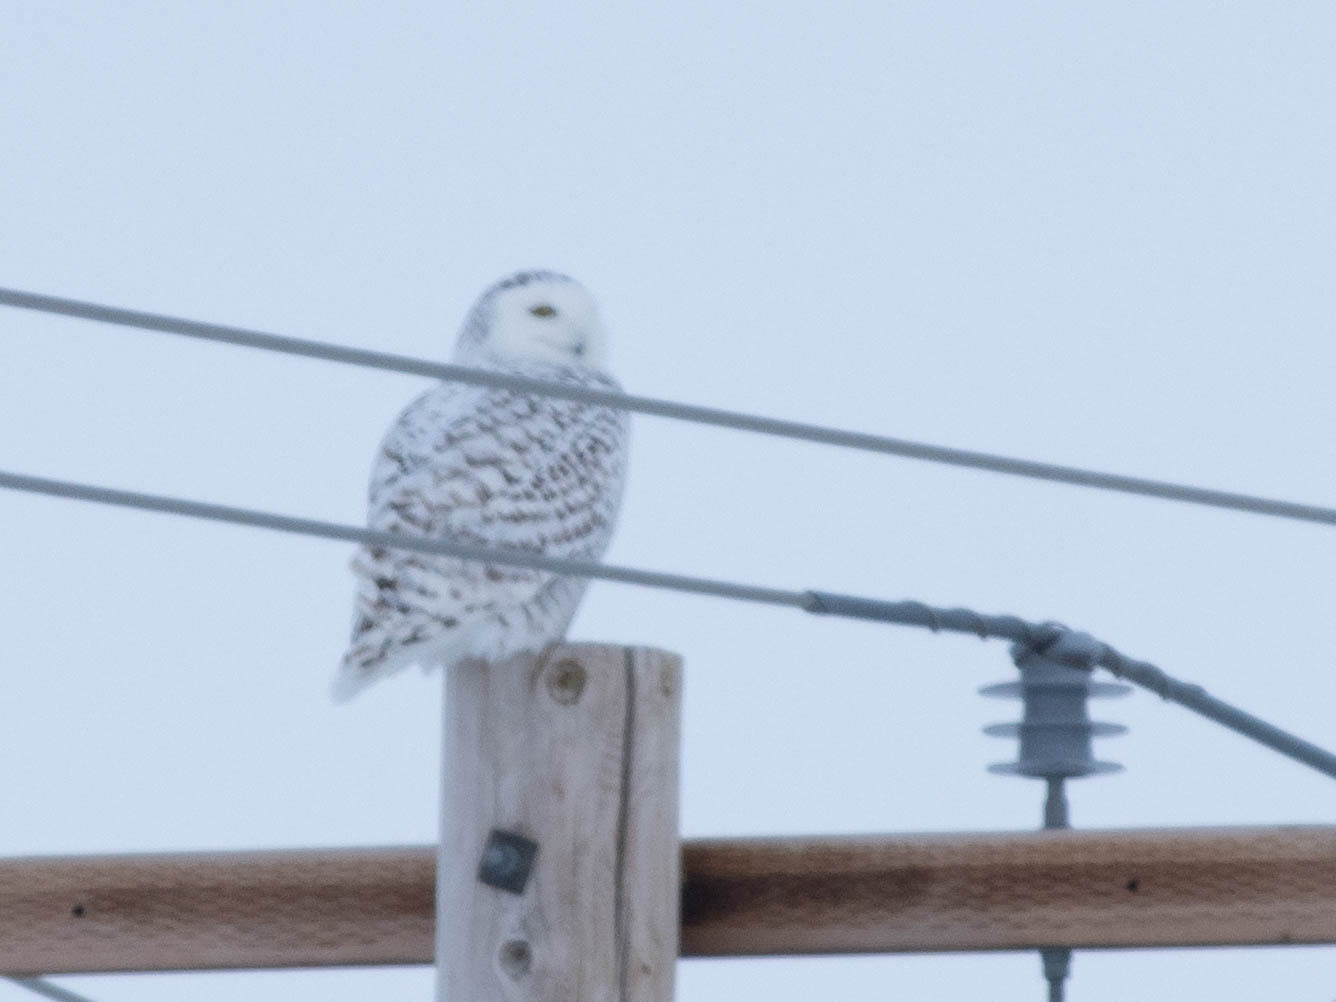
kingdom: Animalia
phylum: Chordata
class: Aves
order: Strigiformes
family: Strigidae
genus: Bubo
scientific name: Bubo scandiacus
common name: Snowy owl
